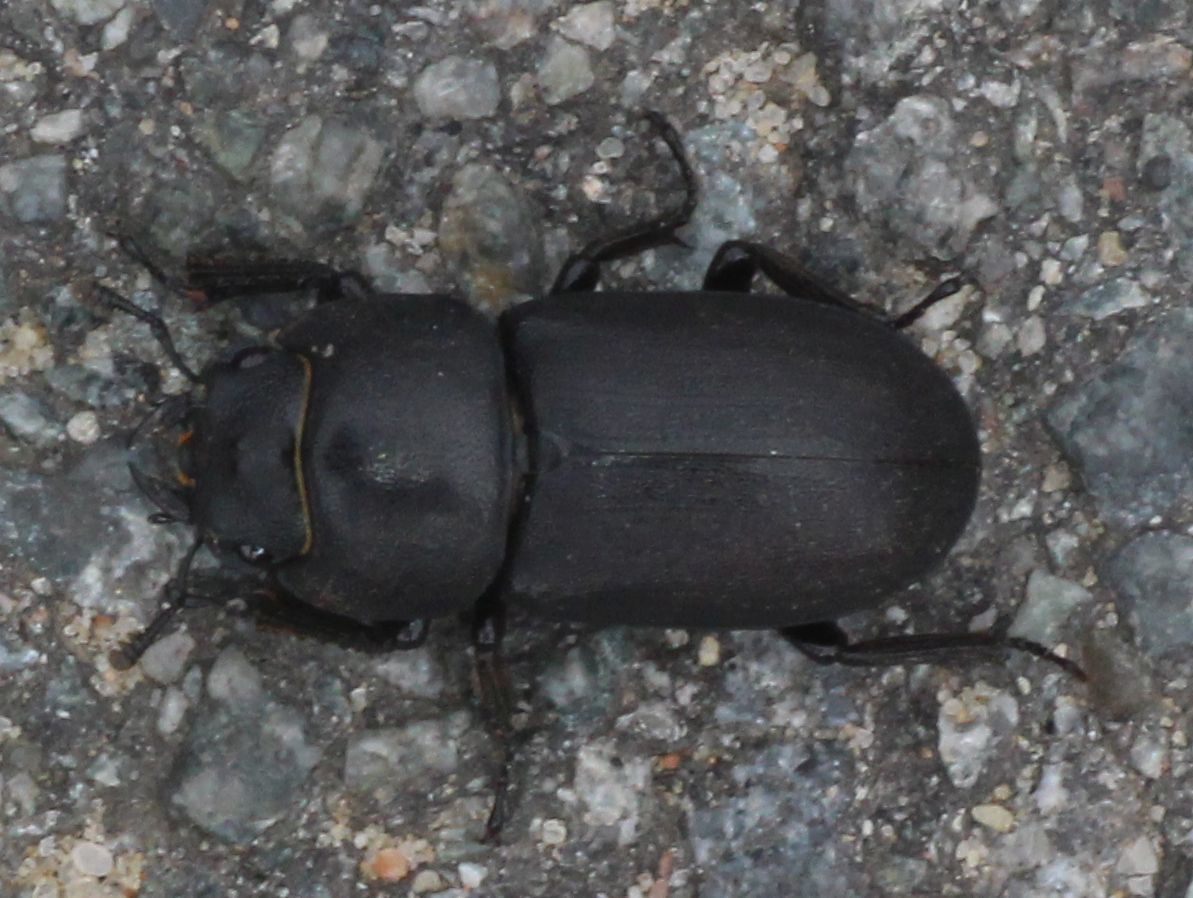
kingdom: Animalia
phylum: Arthropoda
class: Insecta
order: Coleoptera
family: Lucanidae
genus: Dorcus
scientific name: Dorcus parallelipipedus
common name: Lesser stag beetle
